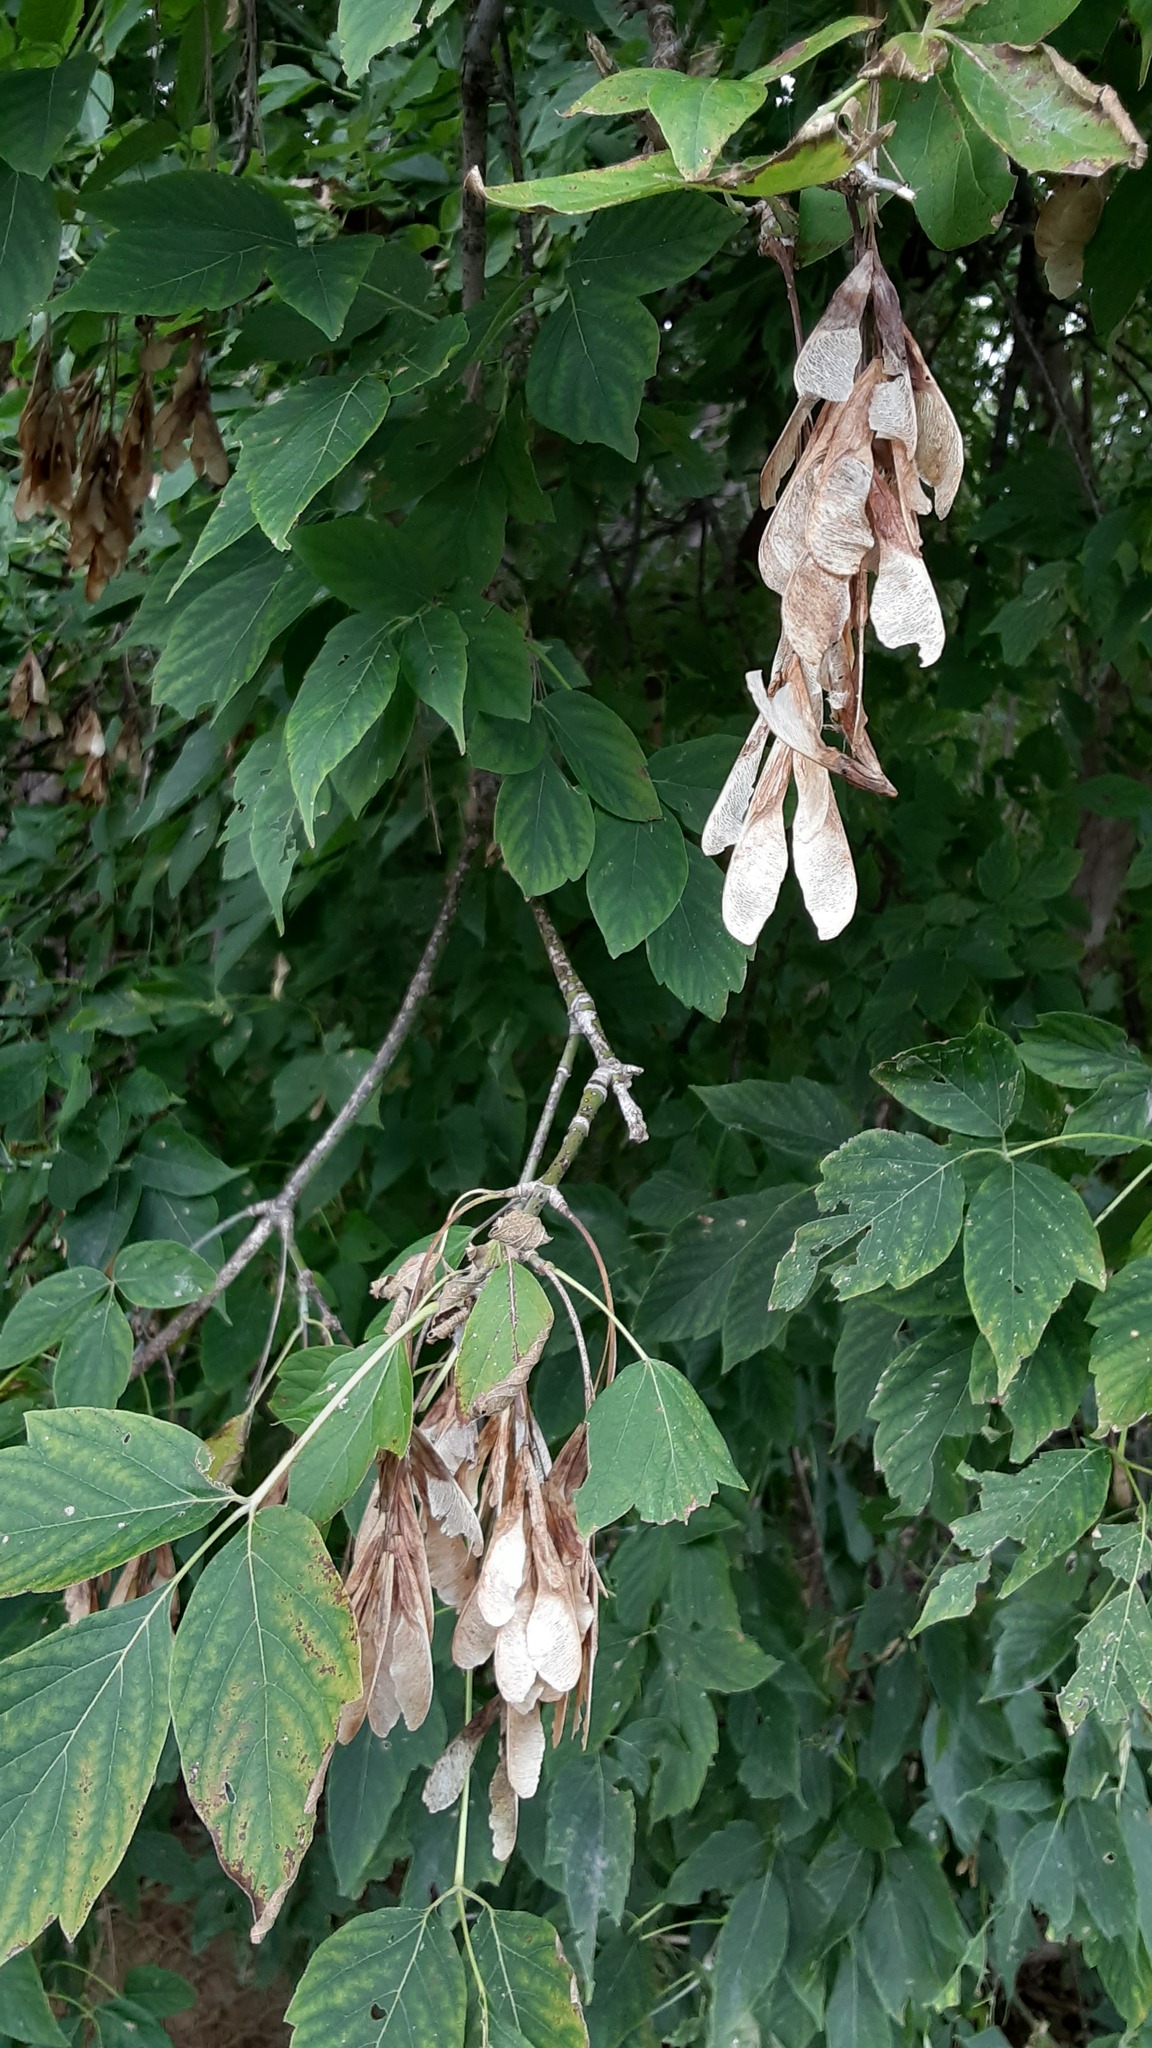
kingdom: Plantae
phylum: Tracheophyta
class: Magnoliopsida
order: Sapindales
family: Sapindaceae
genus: Acer
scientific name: Acer negundo
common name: Ashleaf maple
